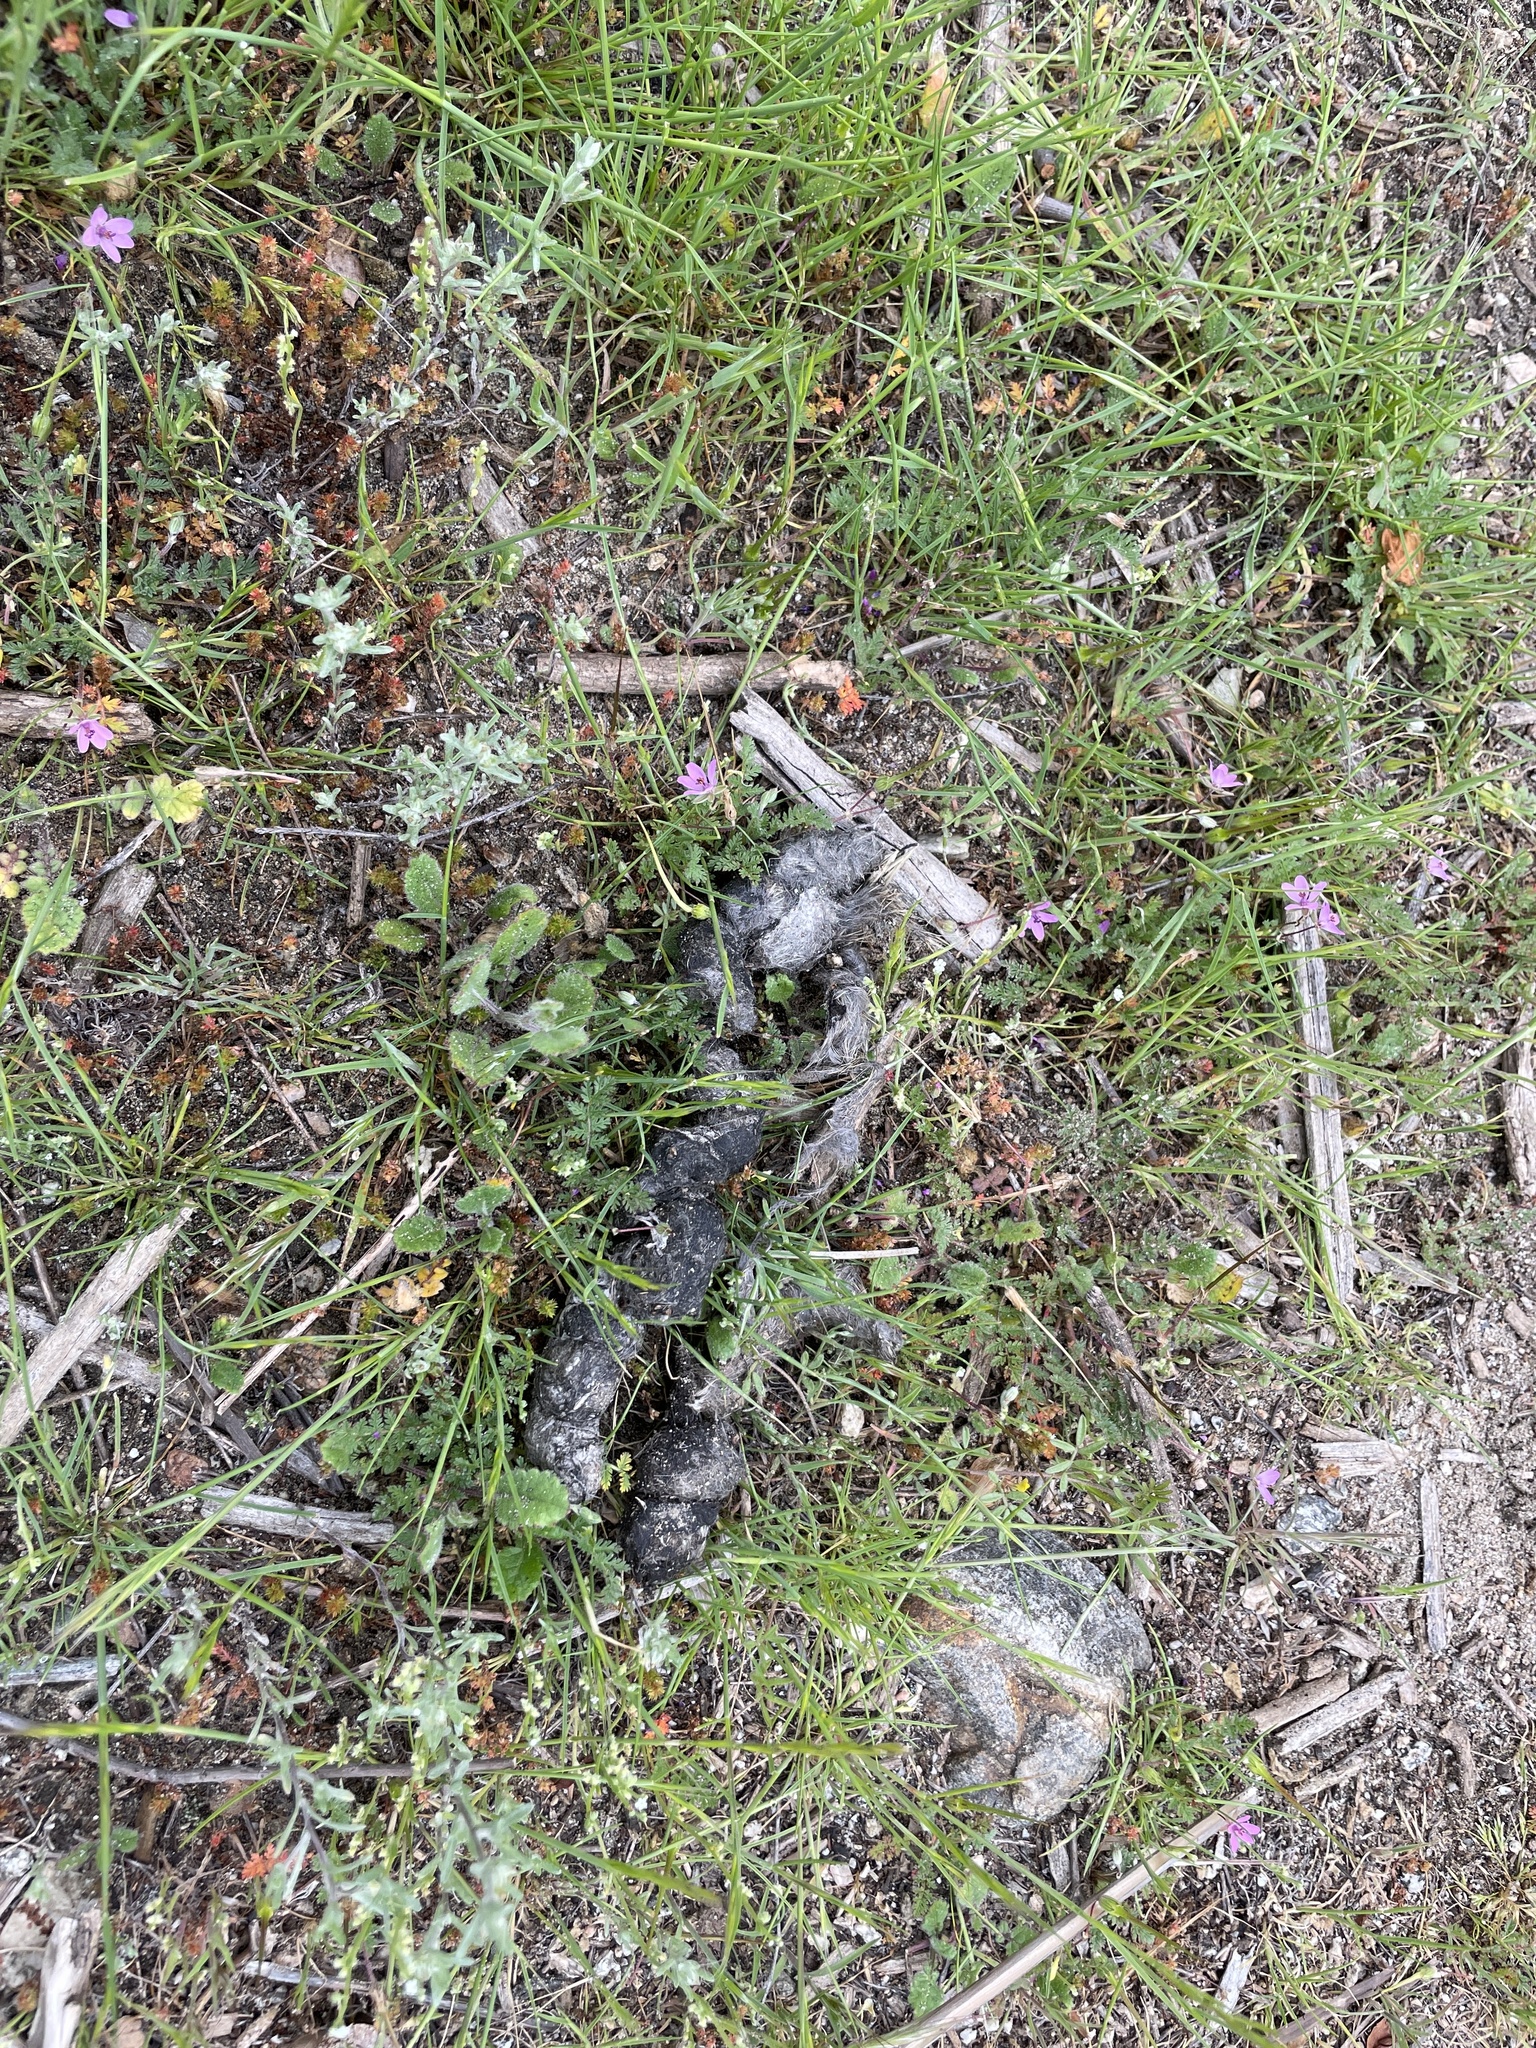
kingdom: Animalia
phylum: Chordata
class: Mammalia
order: Carnivora
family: Canidae
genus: Canis
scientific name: Canis latrans
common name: Coyote
